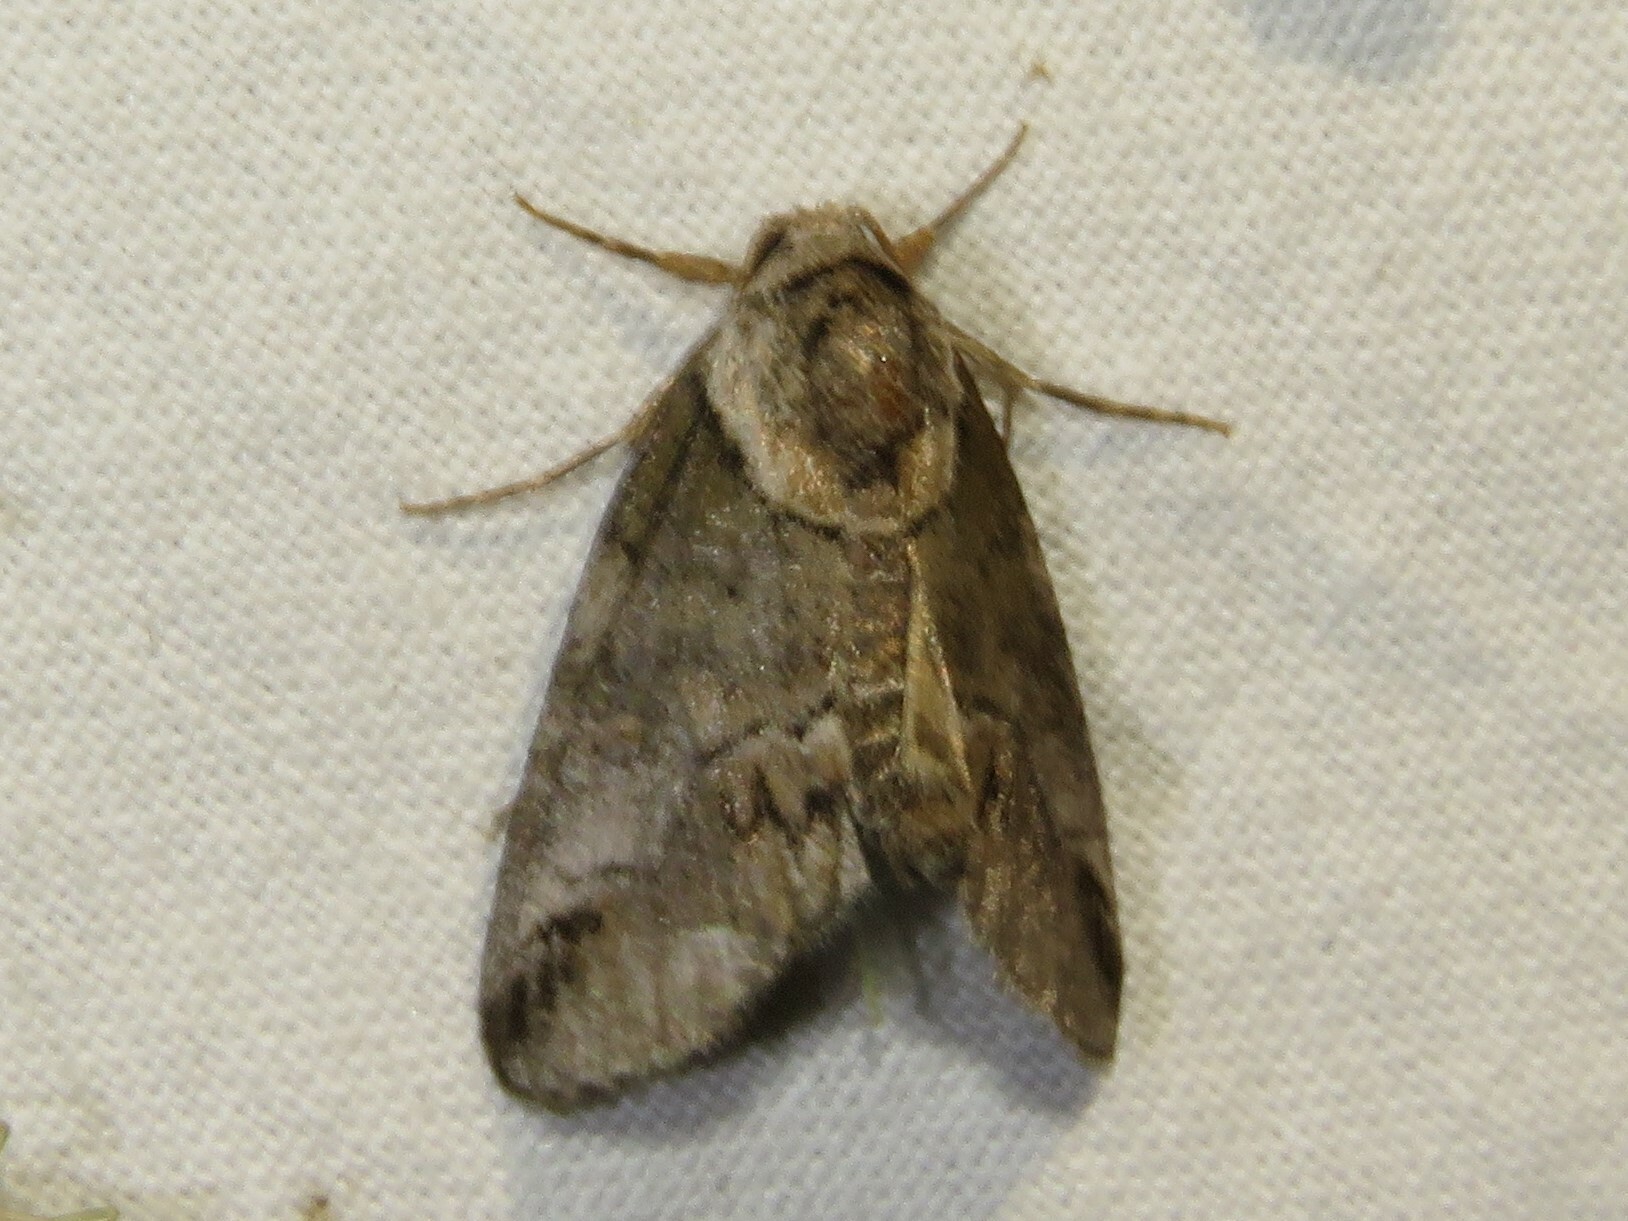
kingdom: Animalia
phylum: Arthropoda
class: Insecta
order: Lepidoptera
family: Nolidae
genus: Baileya
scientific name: Baileya australis
